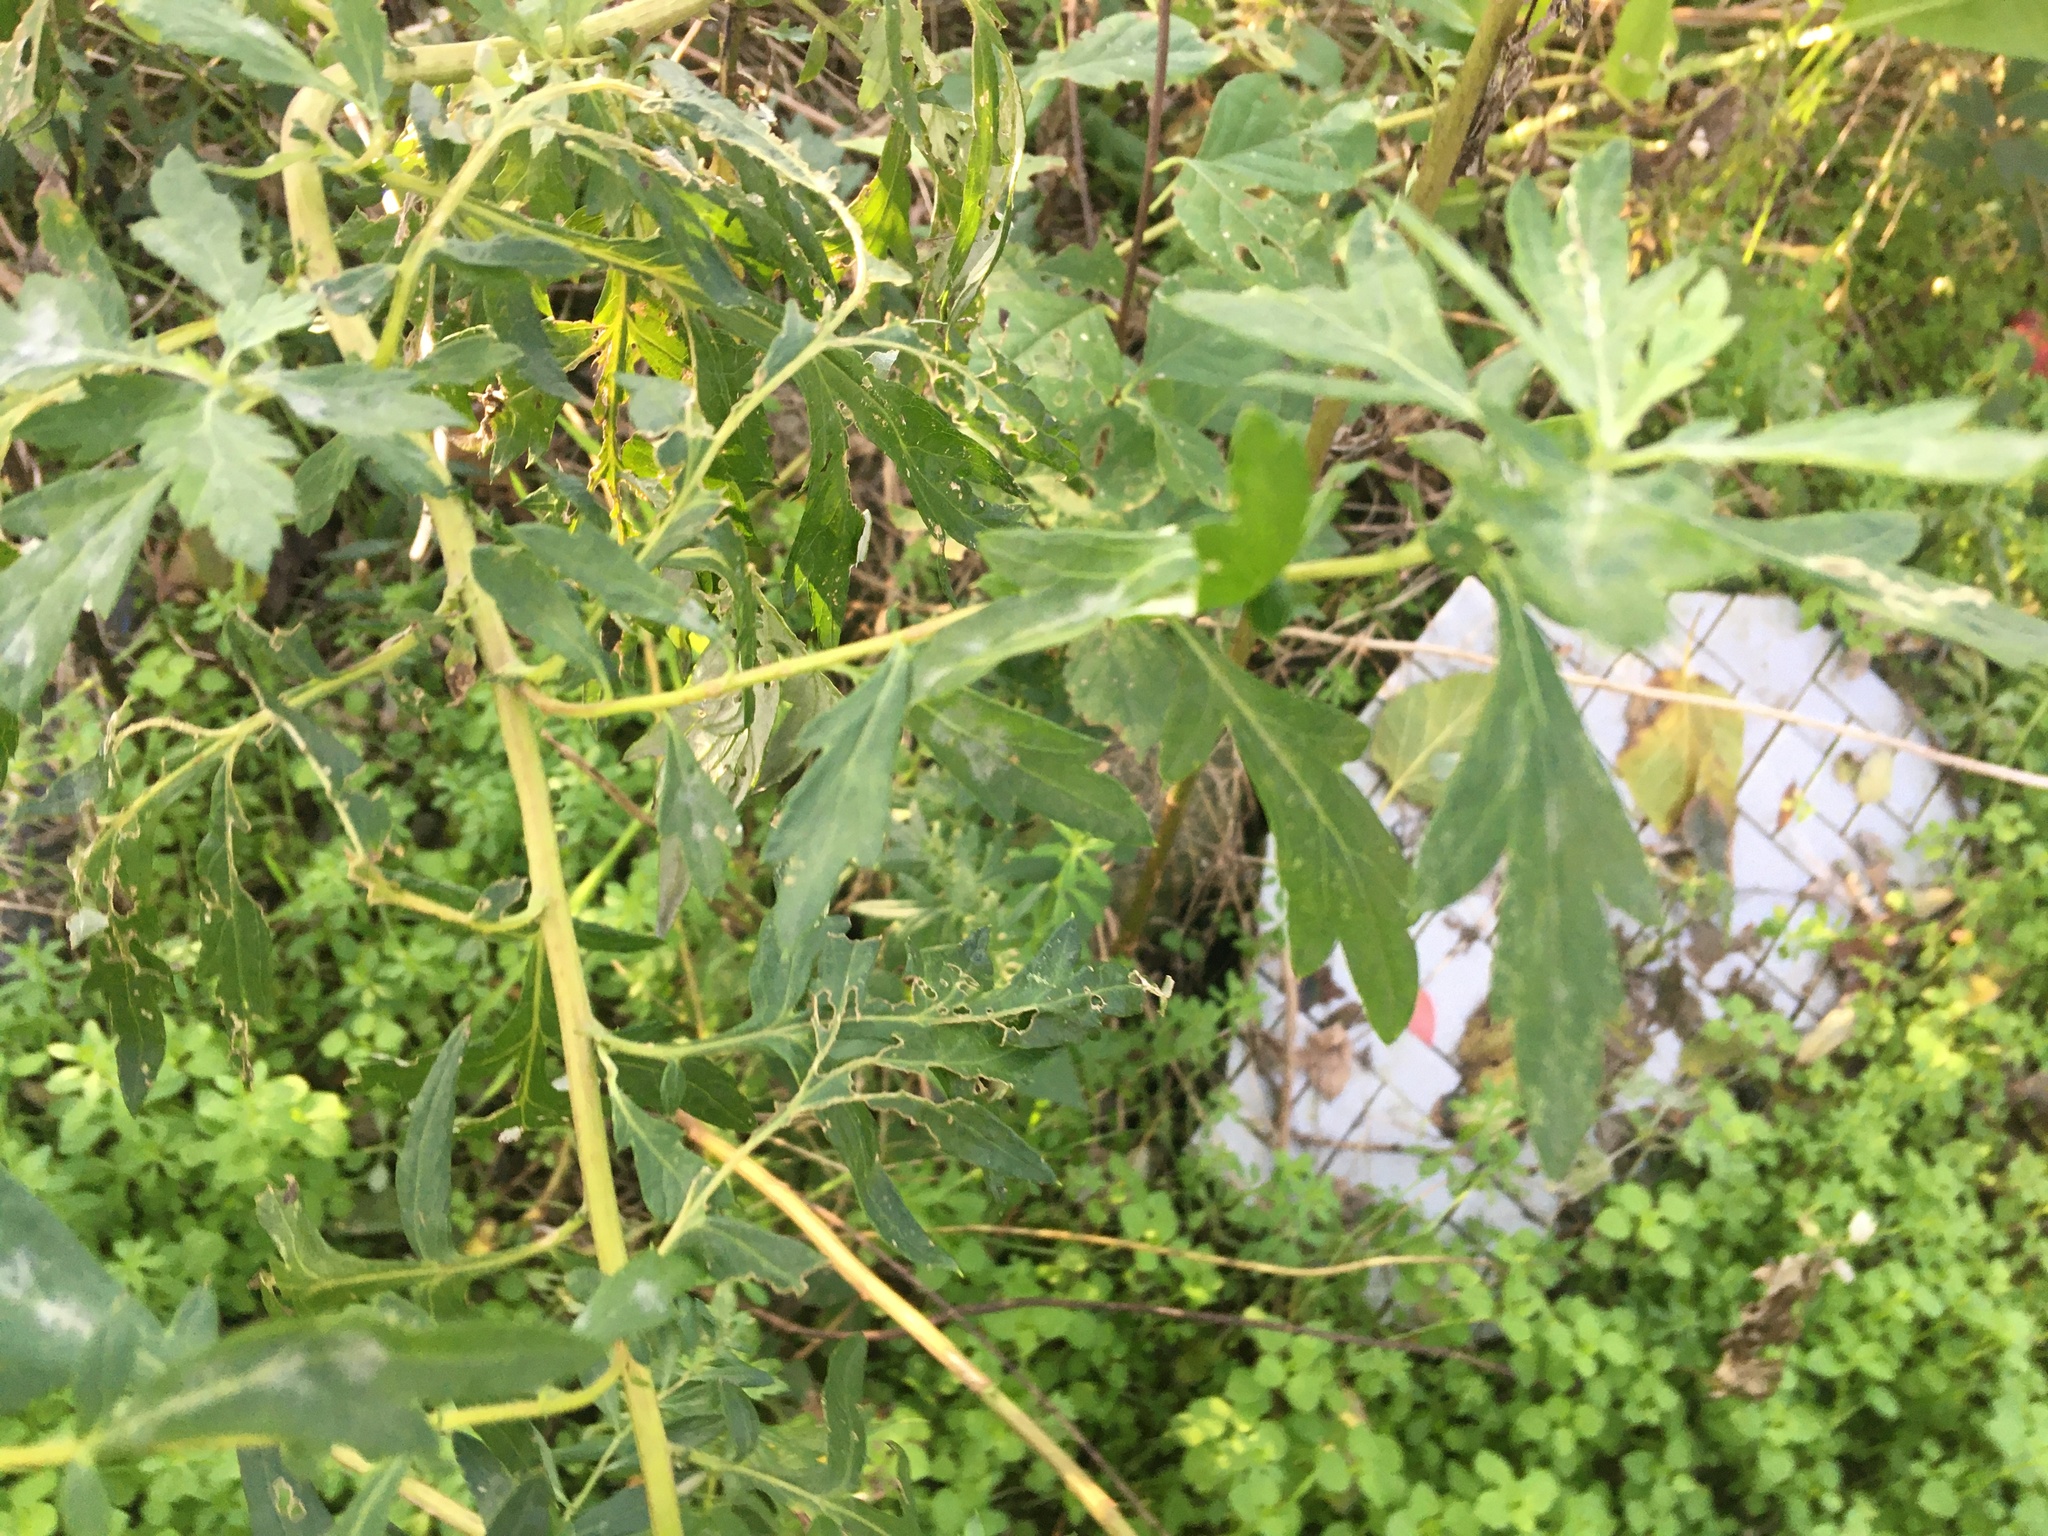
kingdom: Plantae
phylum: Tracheophyta
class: Magnoliopsida
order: Asterales
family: Asteraceae
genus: Artemisia
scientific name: Artemisia vulgaris
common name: Mugwort
